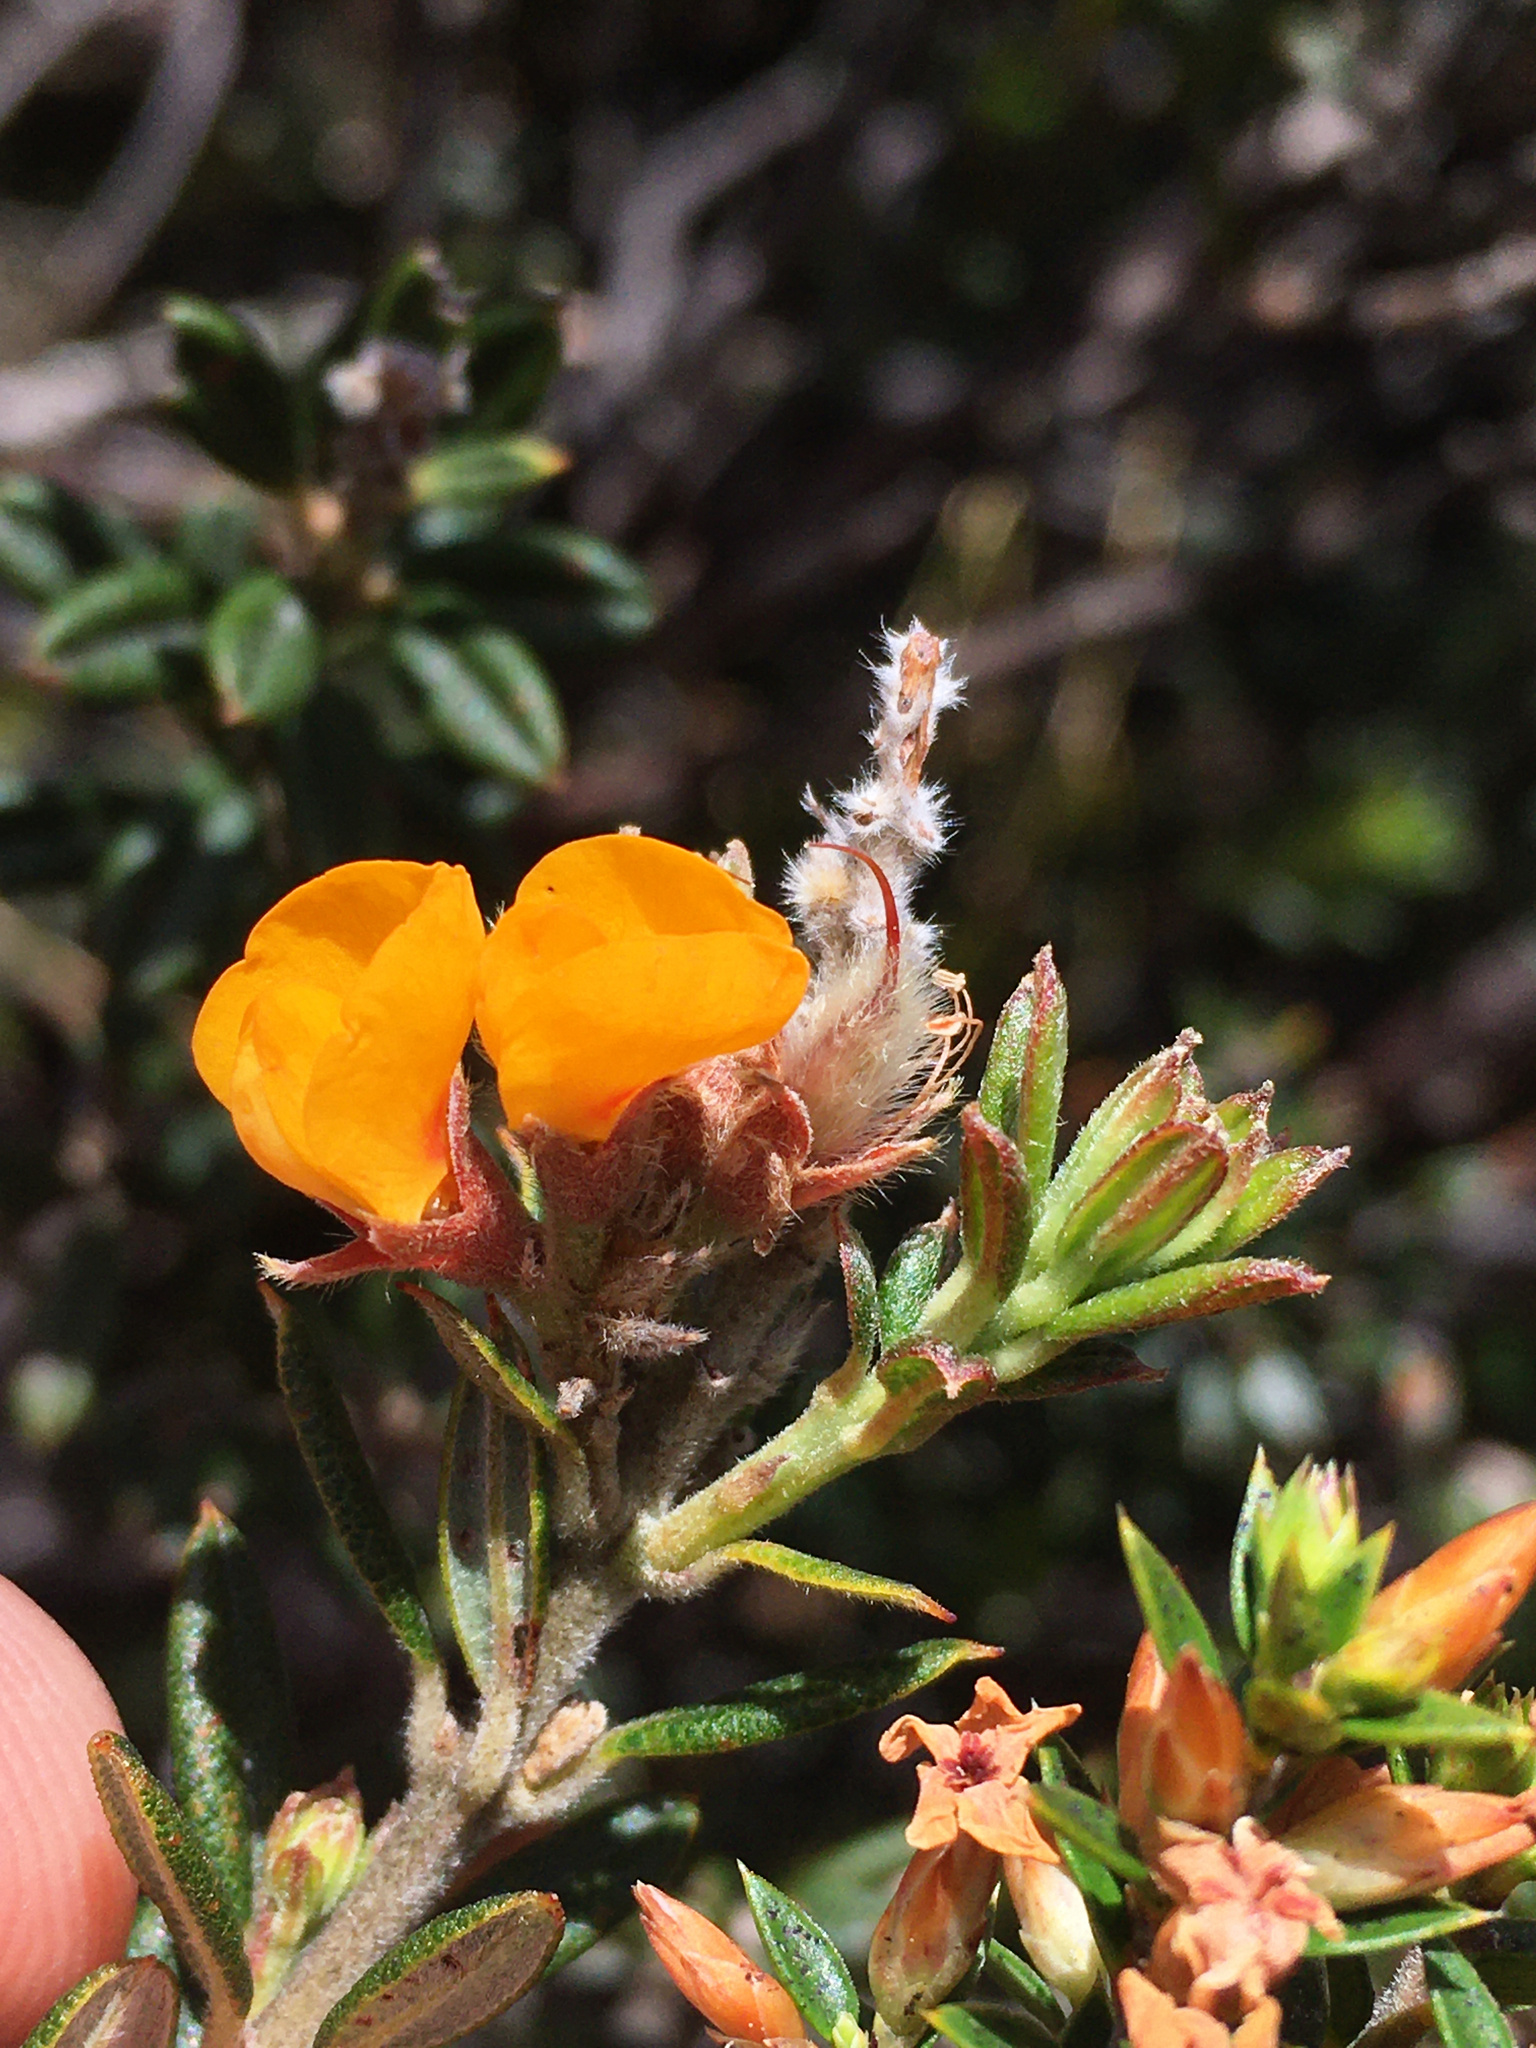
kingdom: Plantae
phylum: Tracheophyta
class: Magnoliopsida
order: Fabales
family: Fabaceae
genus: Oxylobium
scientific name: Oxylobium ellipticum
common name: Golden shaggy-pea
